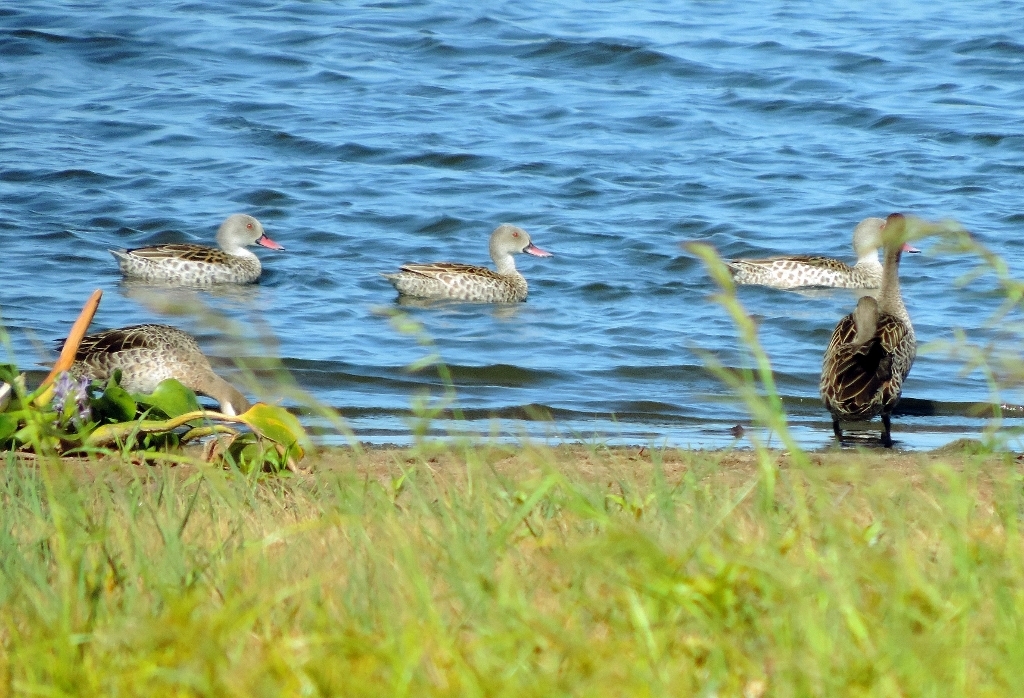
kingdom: Animalia
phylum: Chordata
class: Aves
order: Anseriformes
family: Anatidae
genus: Anas
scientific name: Anas capensis
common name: Cape teal
